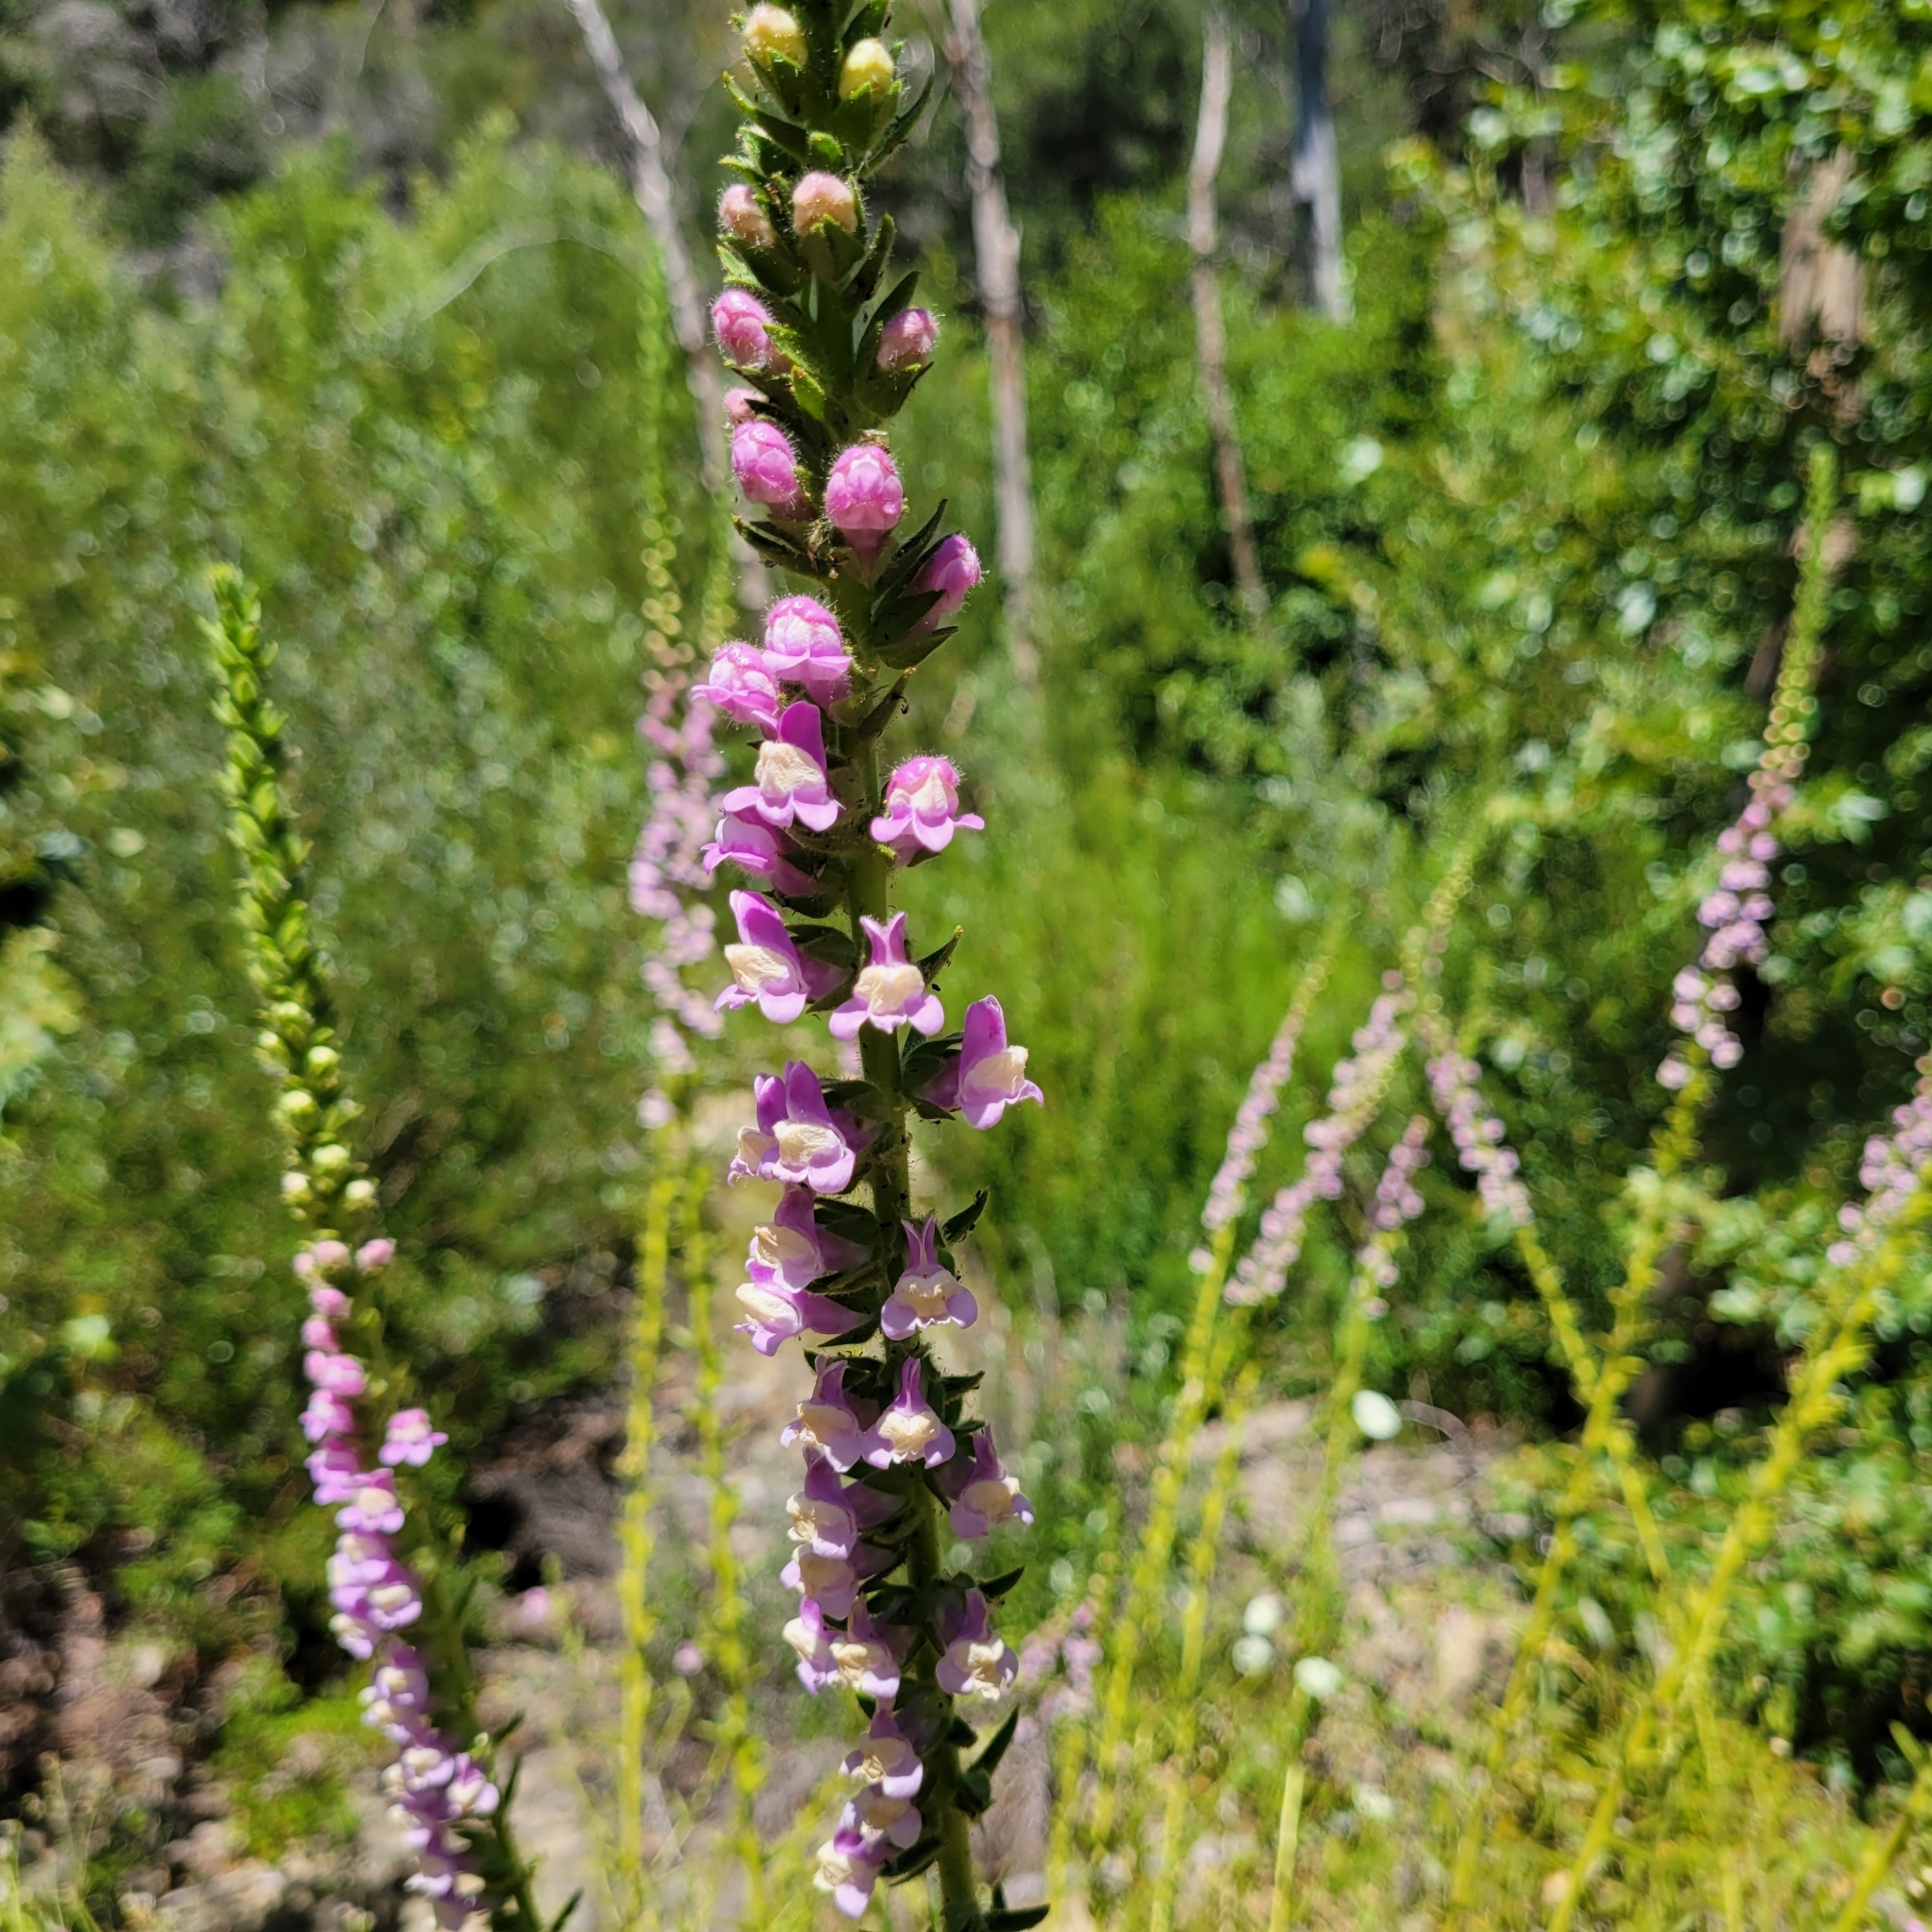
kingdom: Plantae
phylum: Tracheophyta
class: Magnoliopsida
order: Lamiales
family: Plantaginaceae
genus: Sairocarpus
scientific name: Sairocarpus multiflorus
